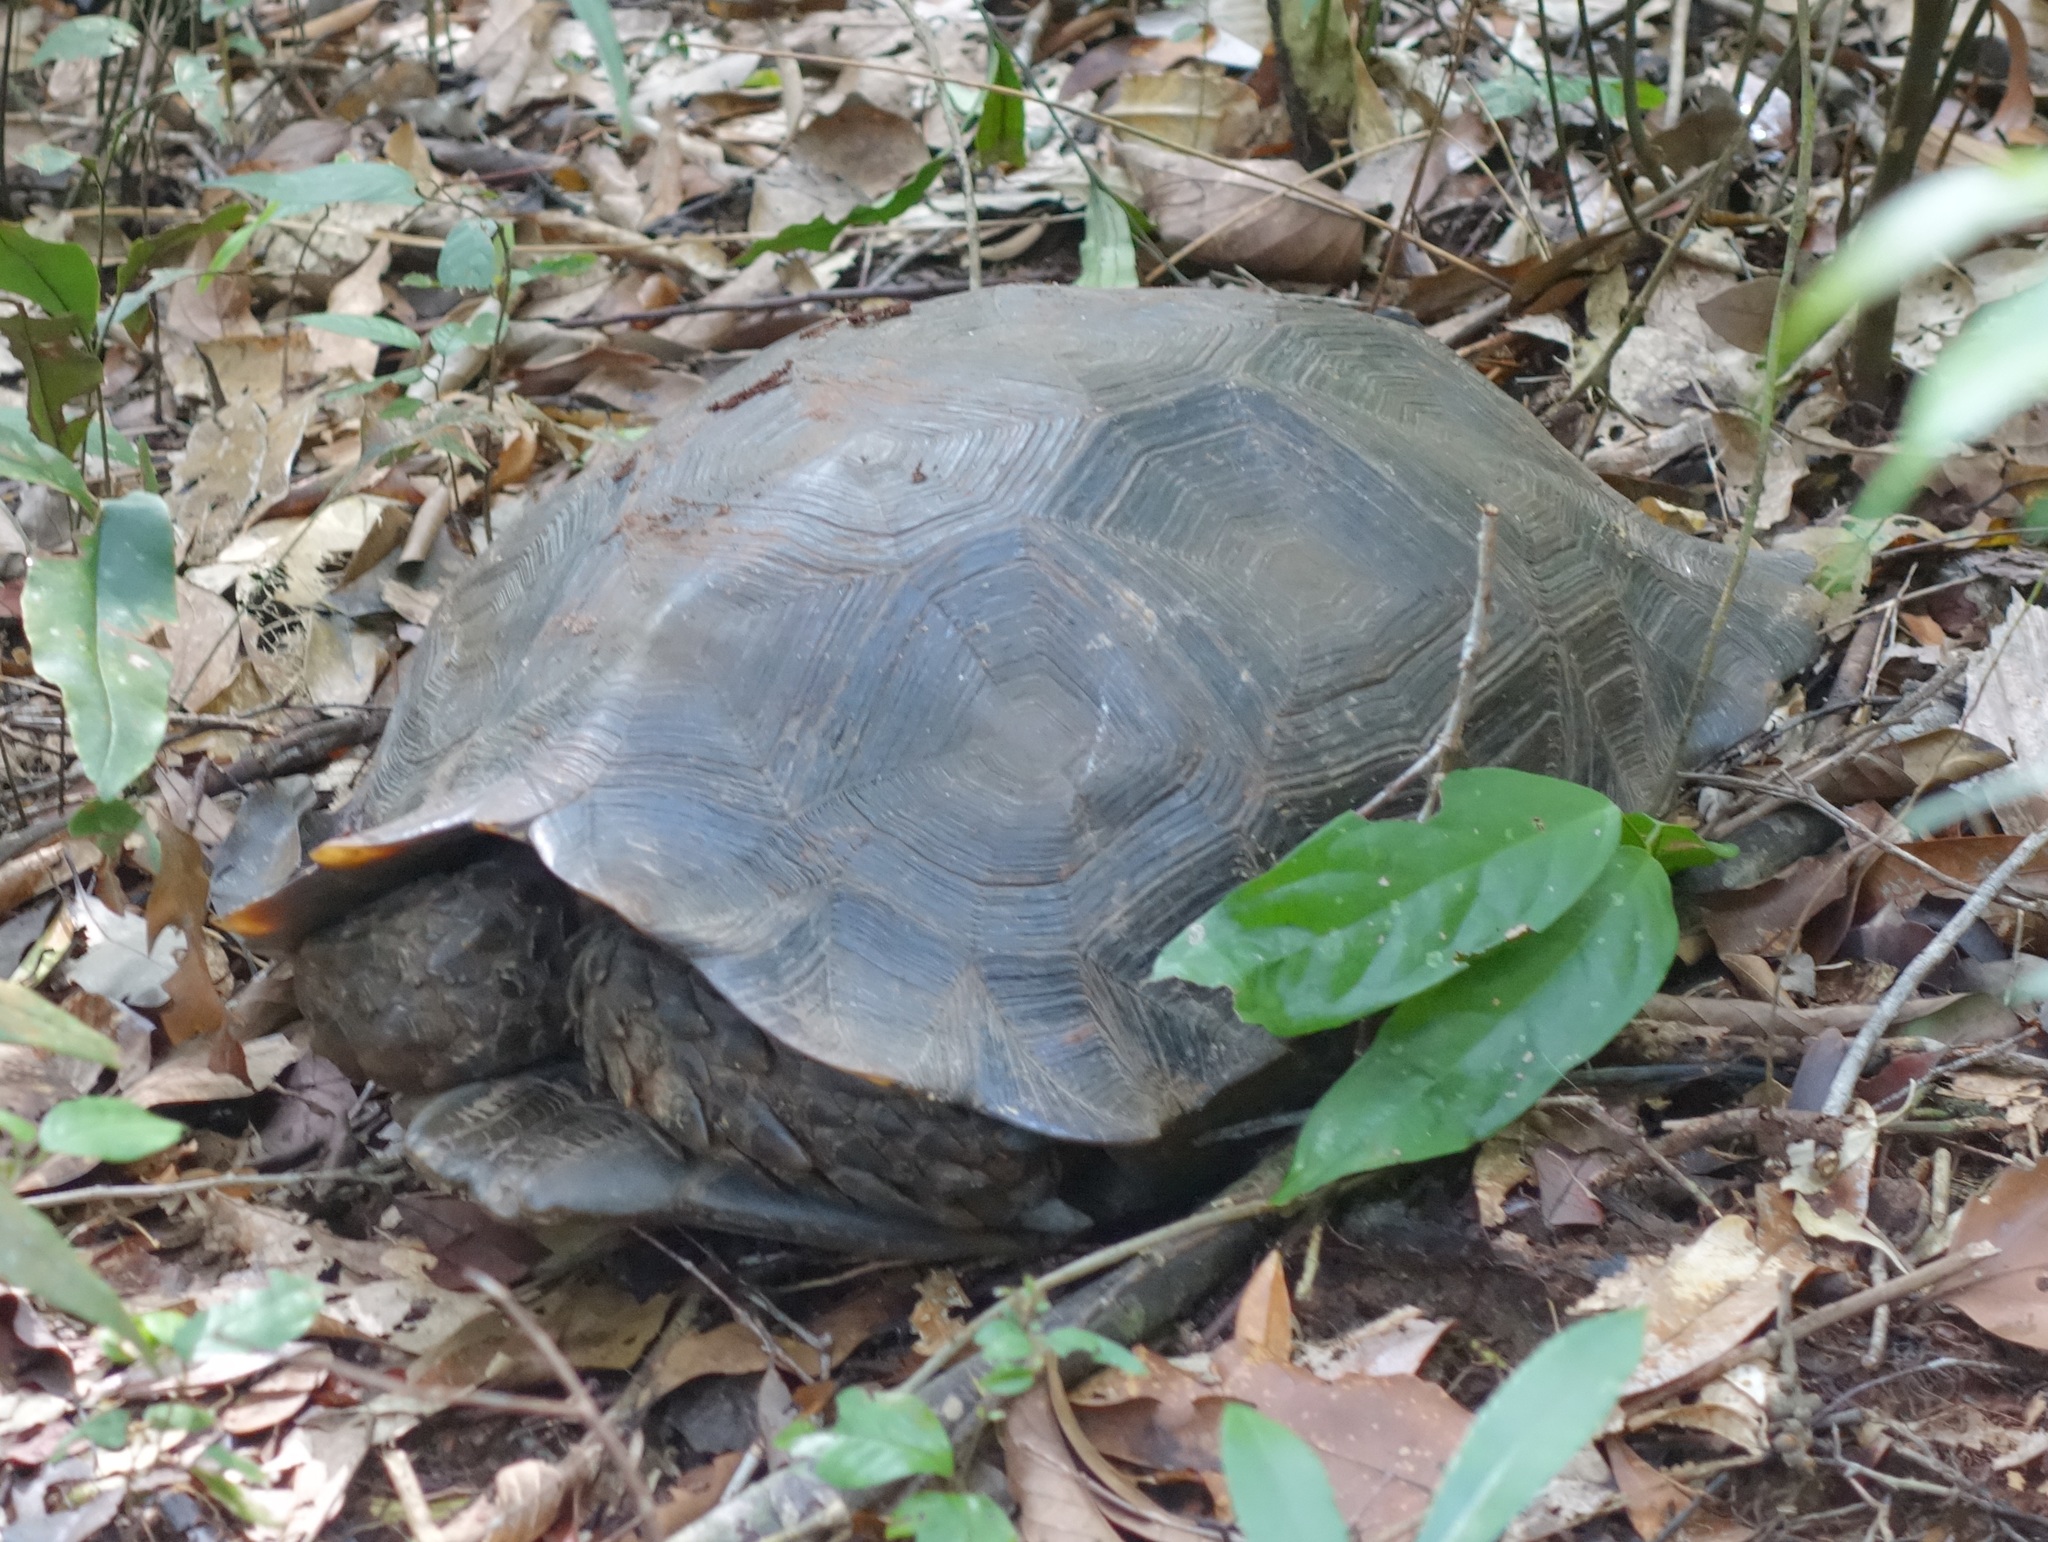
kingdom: Animalia
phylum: Chordata
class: Testudines
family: Testudinidae
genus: Manouria
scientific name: Manouria emys
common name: Asian brown tortoise
